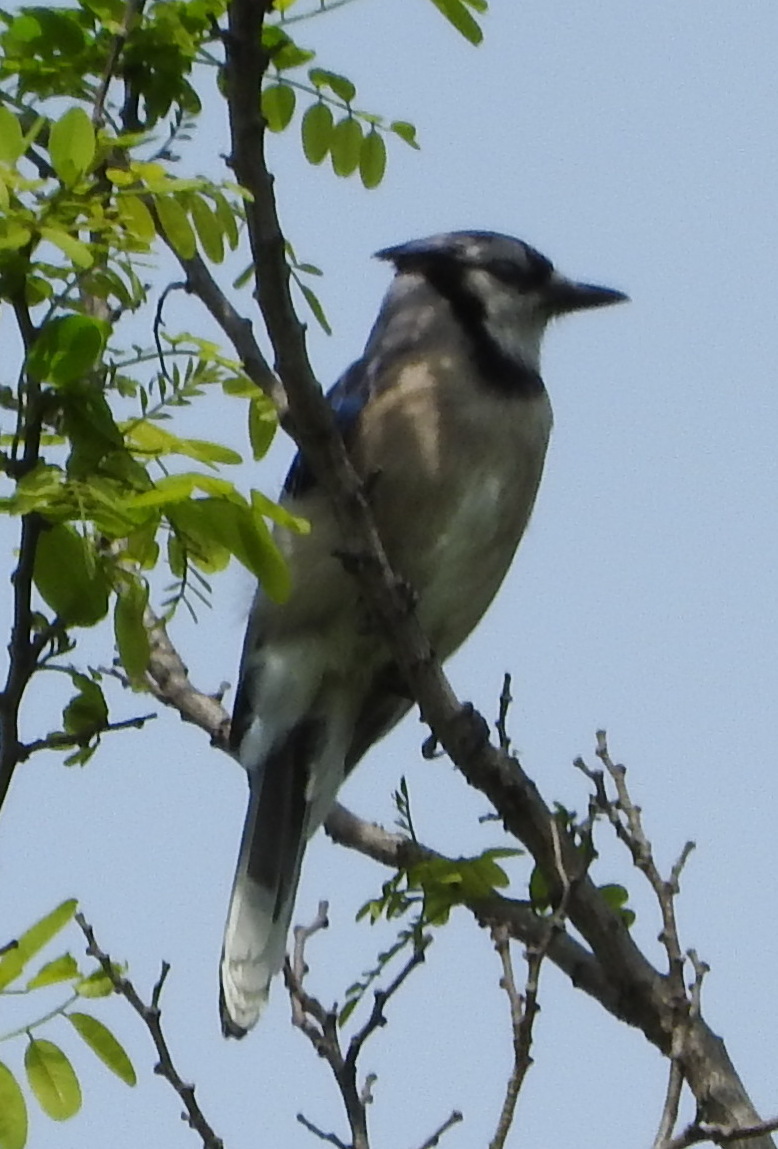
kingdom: Animalia
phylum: Chordata
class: Aves
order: Passeriformes
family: Corvidae
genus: Cyanocitta
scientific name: Cyanocitta cristata
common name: Blue jay
